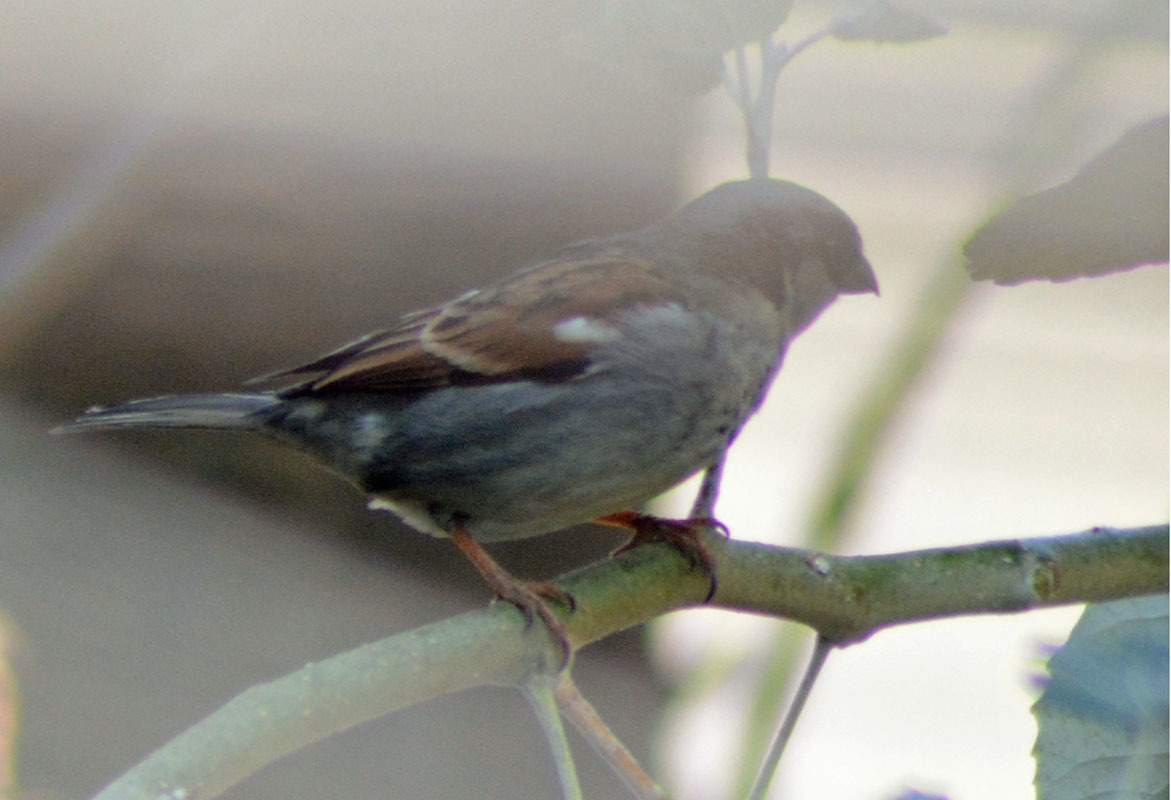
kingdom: Animalia
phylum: Chordata
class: Aves
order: Passeriformes
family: Passeridae
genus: Passer
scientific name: Passer domesticus
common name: House sparrow
